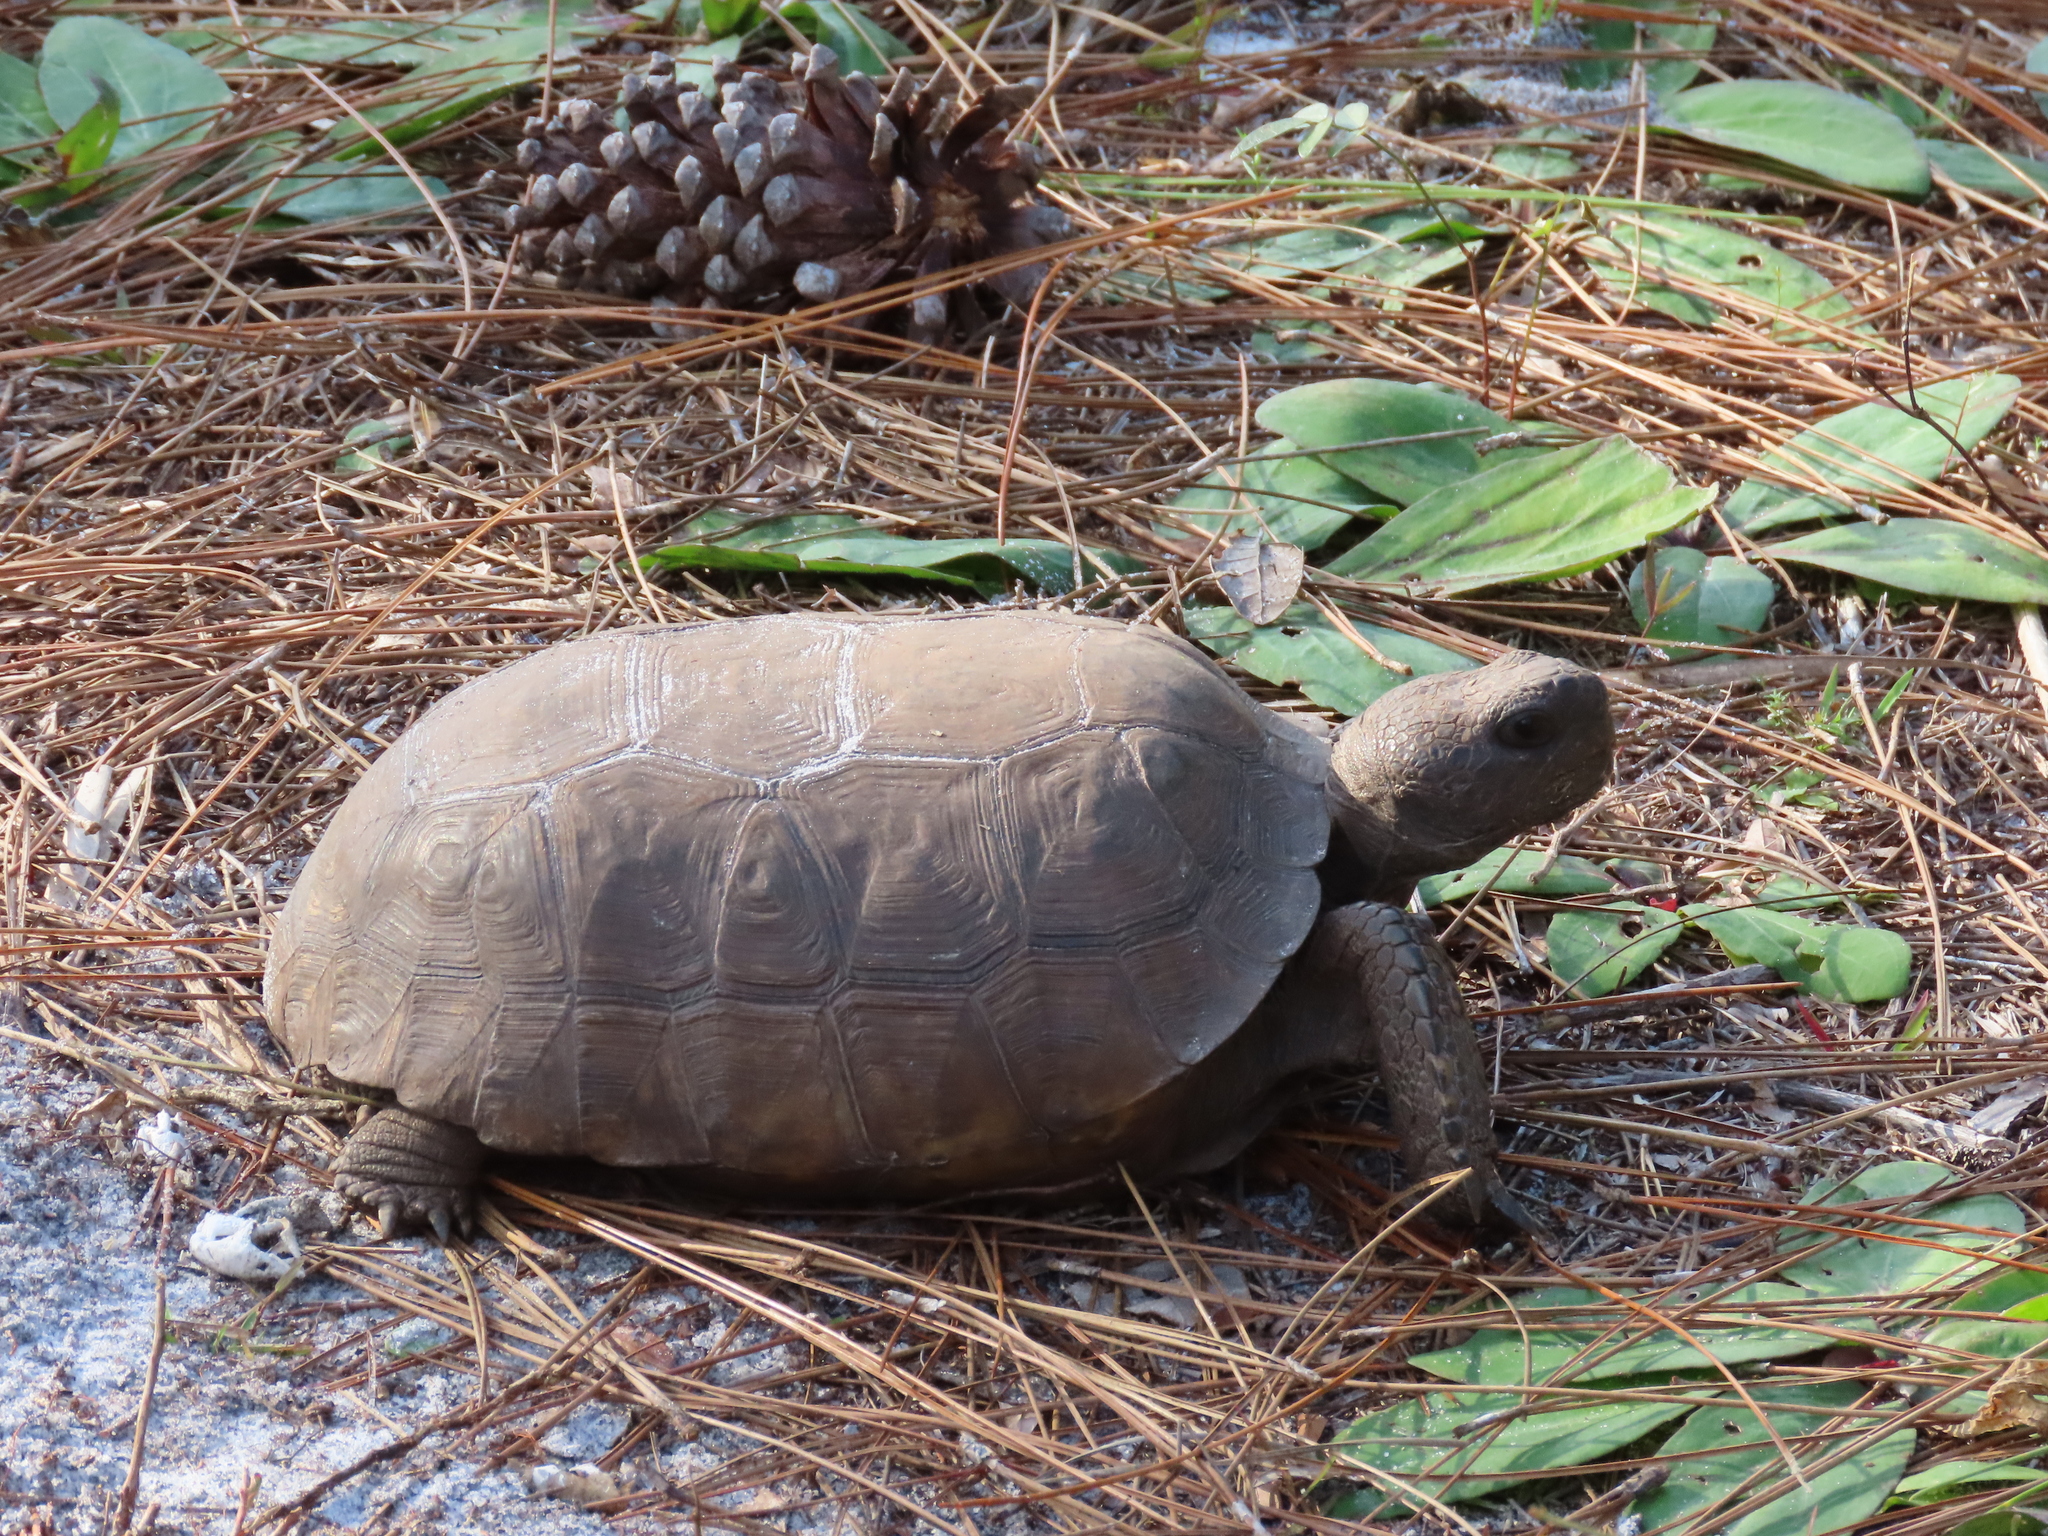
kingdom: Animalia
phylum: Chordata
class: Testudines
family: Testudinidae
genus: Gopherus
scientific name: Gopherus polyphemus
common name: Florida gopher tortoise
